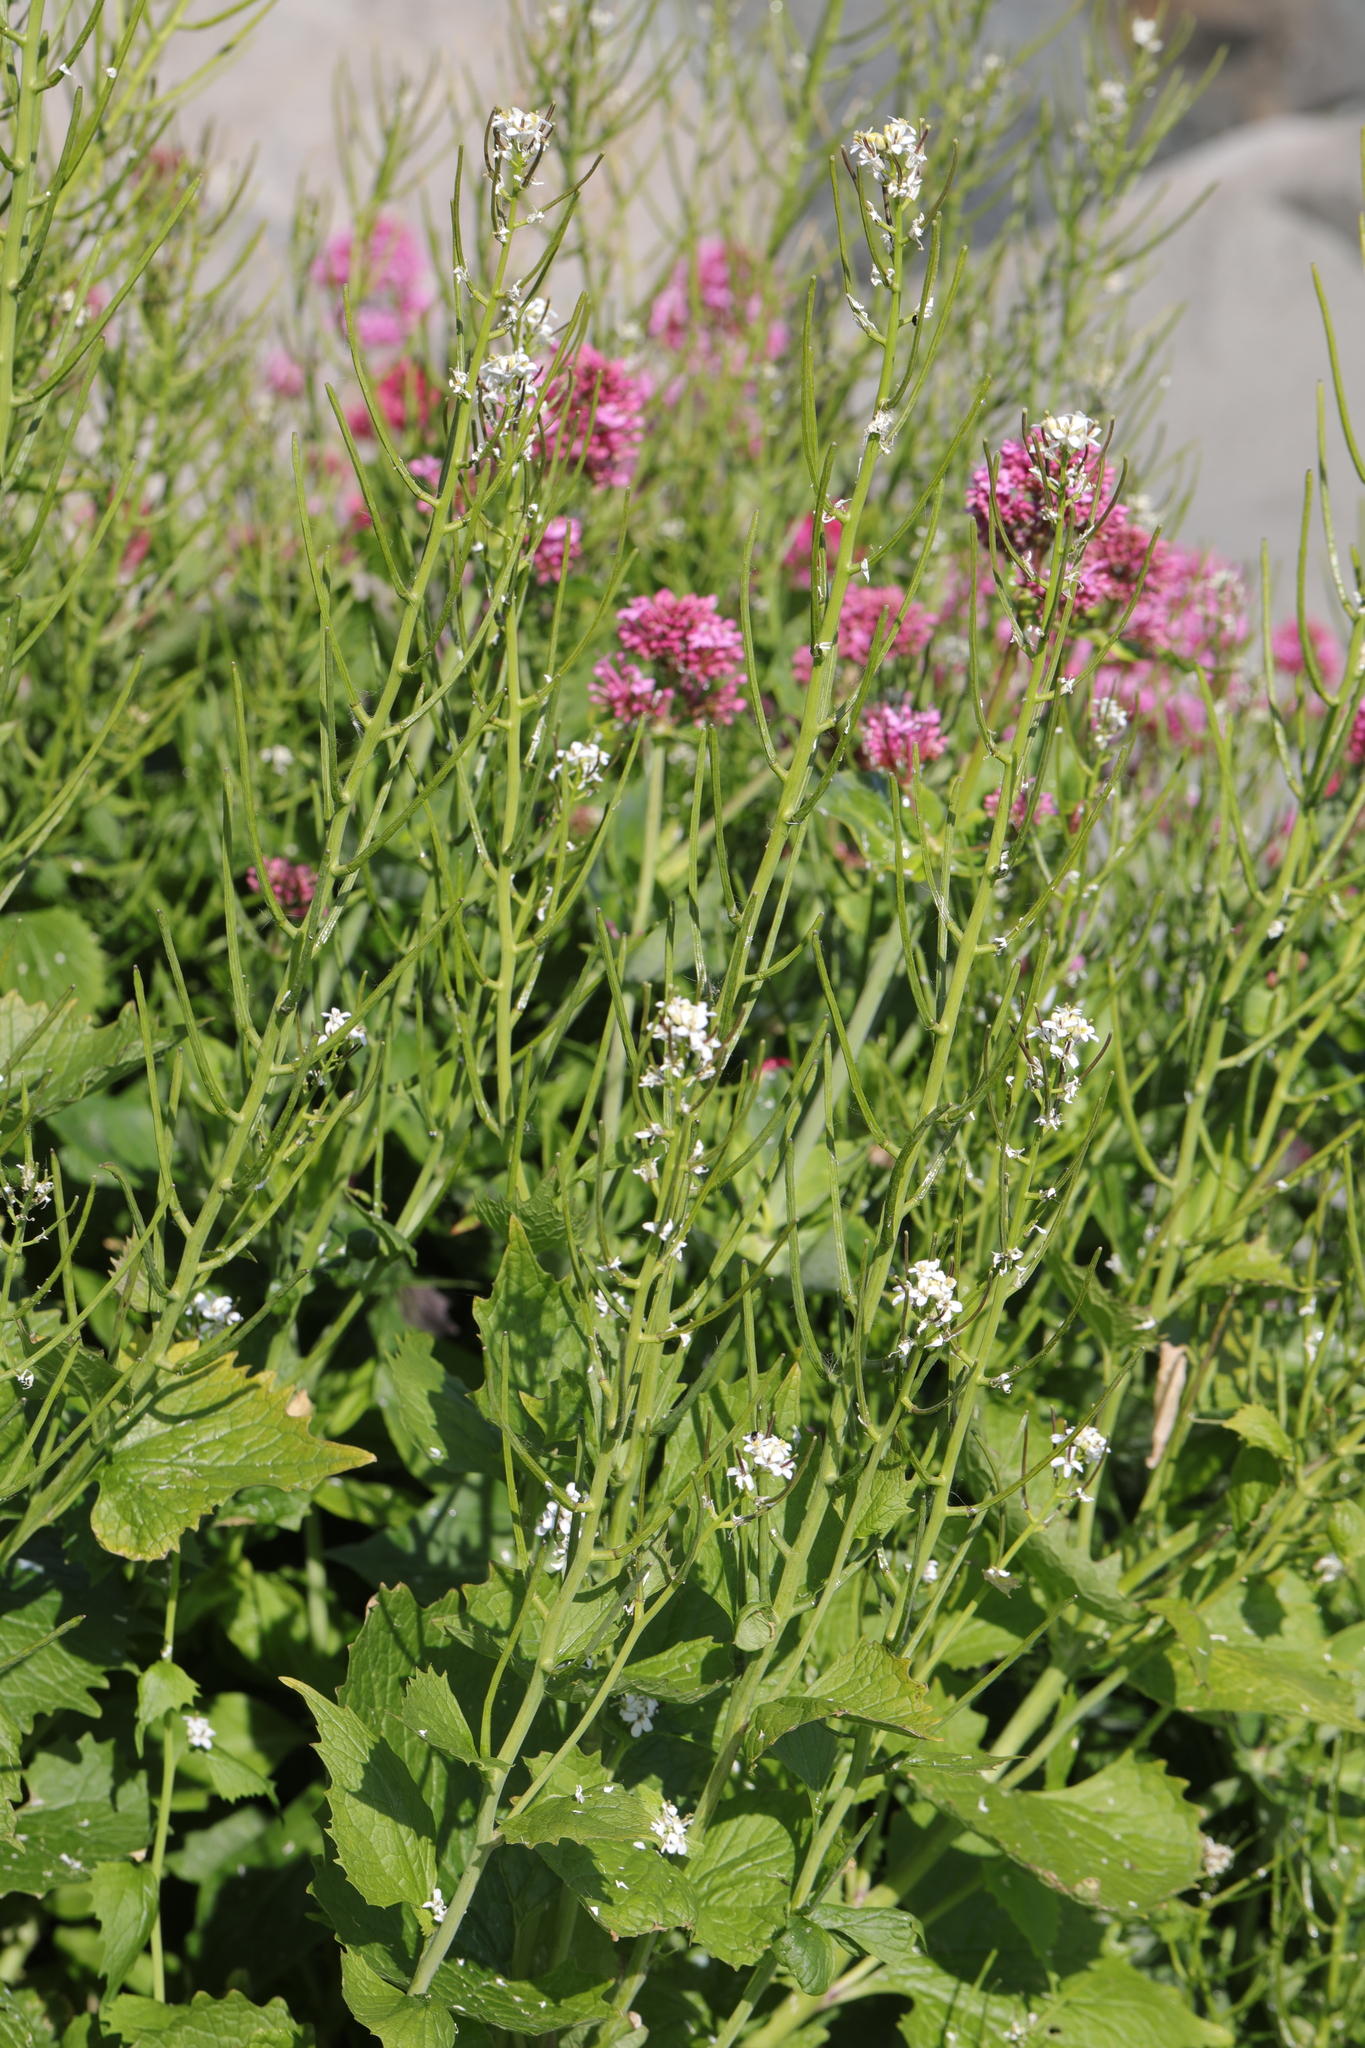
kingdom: Plantae
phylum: Tracheophyta
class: Magnoliopsida
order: Brassicales
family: Brassicaceae
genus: Alliaria
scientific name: Alliaria petiolata
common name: Garlic mustard
